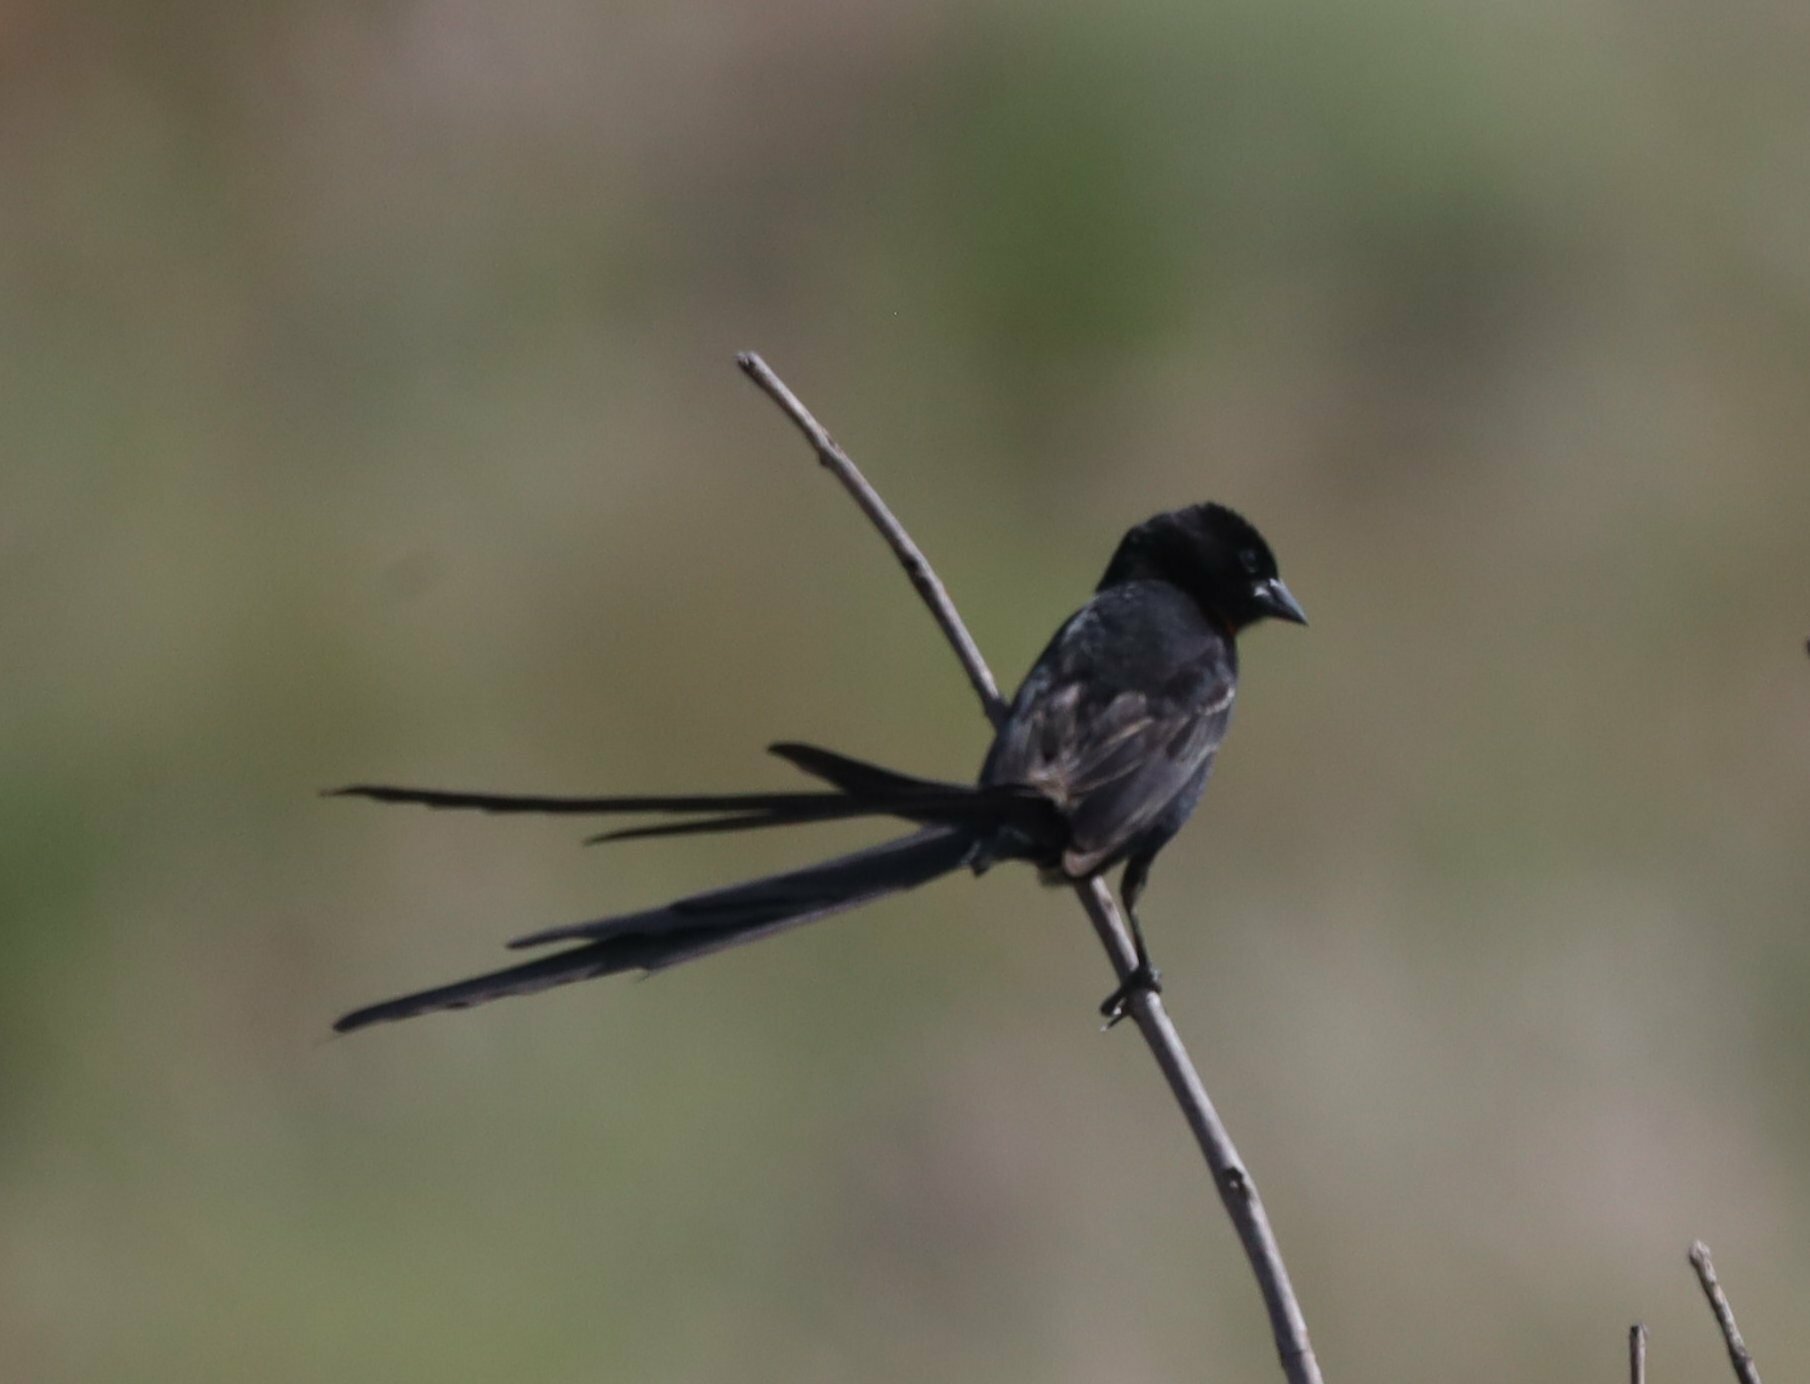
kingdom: Animalia
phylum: Chordata
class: Aves
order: Passeriformes
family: Ploceidae
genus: Euplectes
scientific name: Euplectes ardens
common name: Red-collared widowbird
